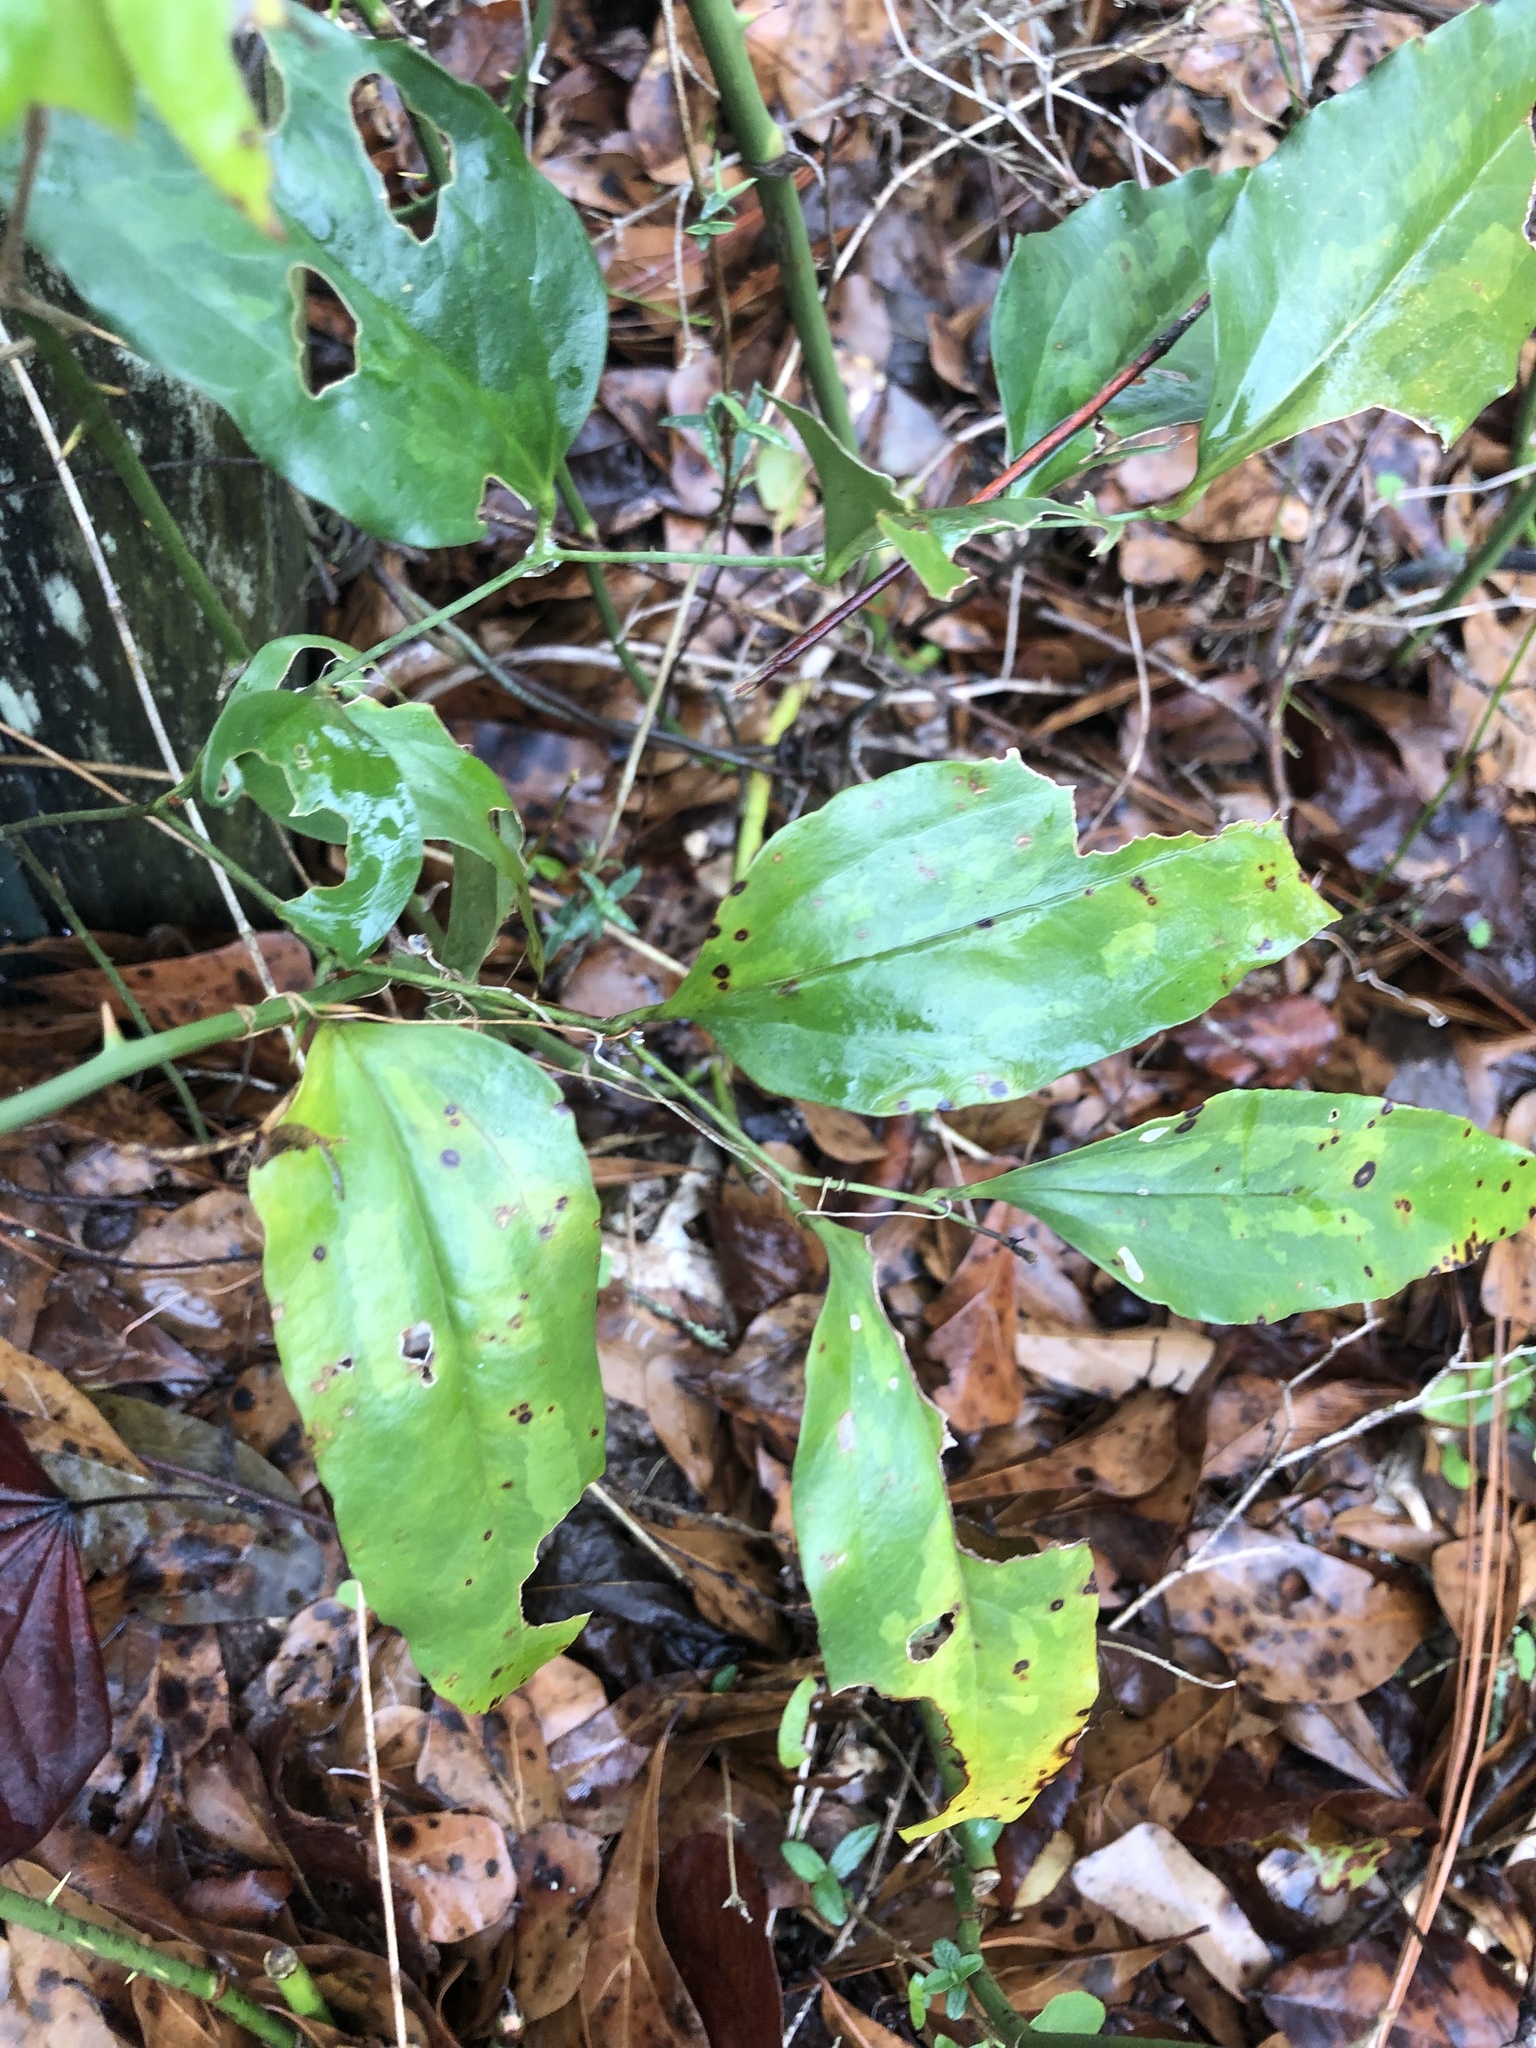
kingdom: Plantae
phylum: Tracheophyta
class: Liliopsida
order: Liliales
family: Smilacaceae
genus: Smilax
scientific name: Smilax bona-nox
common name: Catbrier
